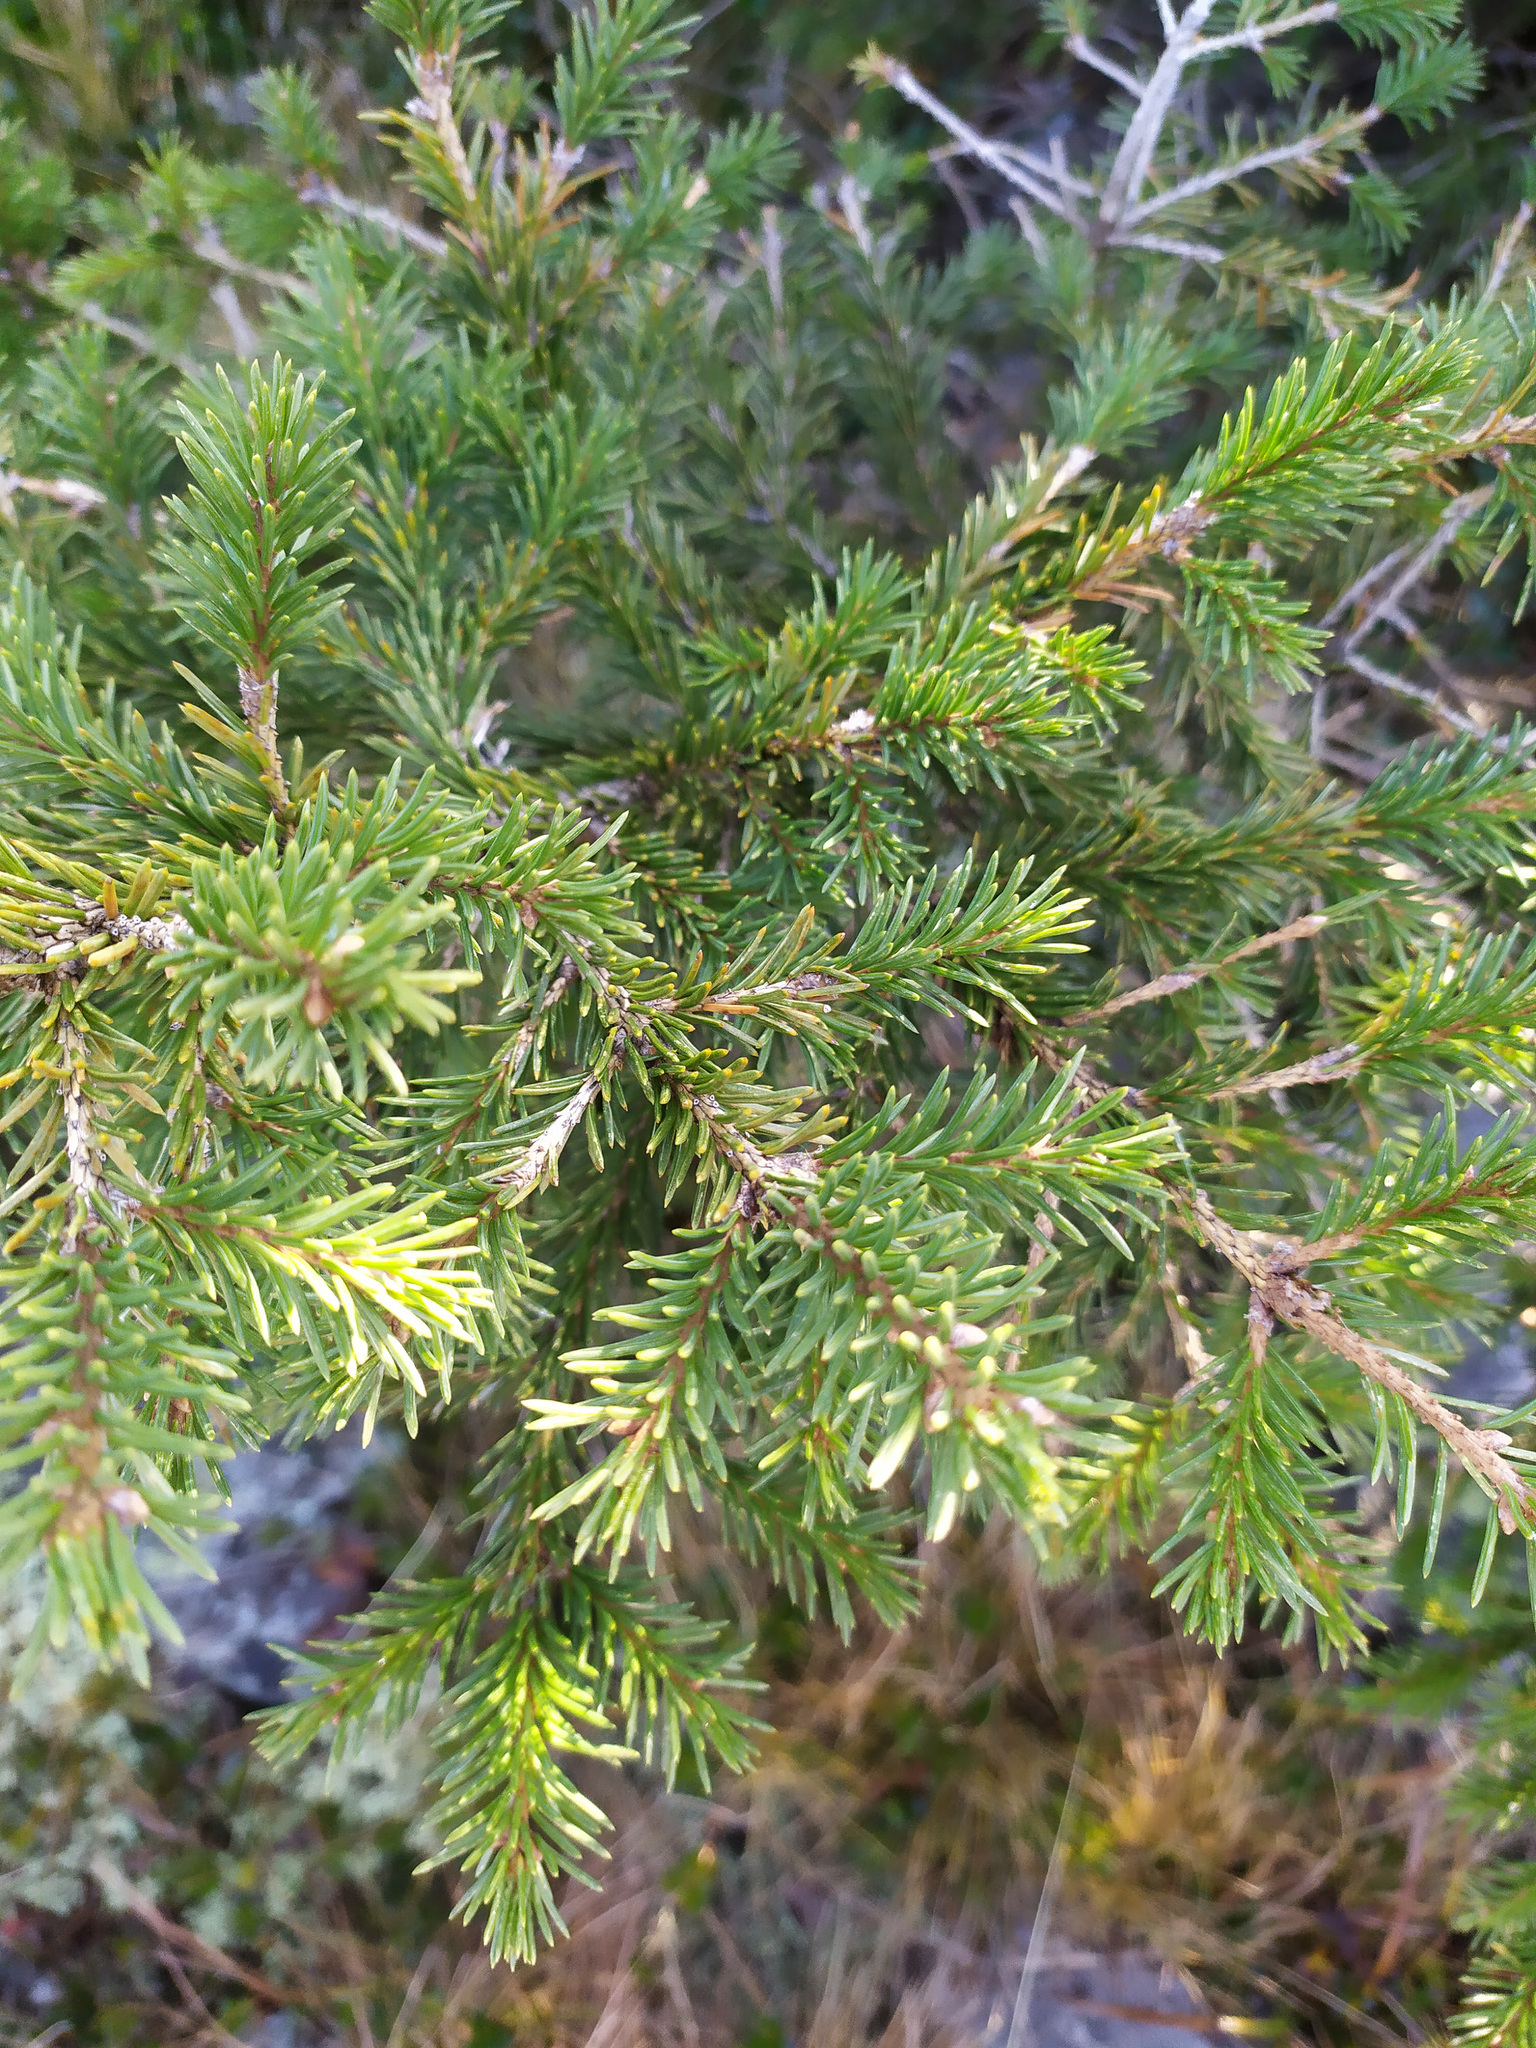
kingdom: Plantae
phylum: Tracheophyta
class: Pinopsida
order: Pinales
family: Pinaceae
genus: Picea
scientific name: Picea
